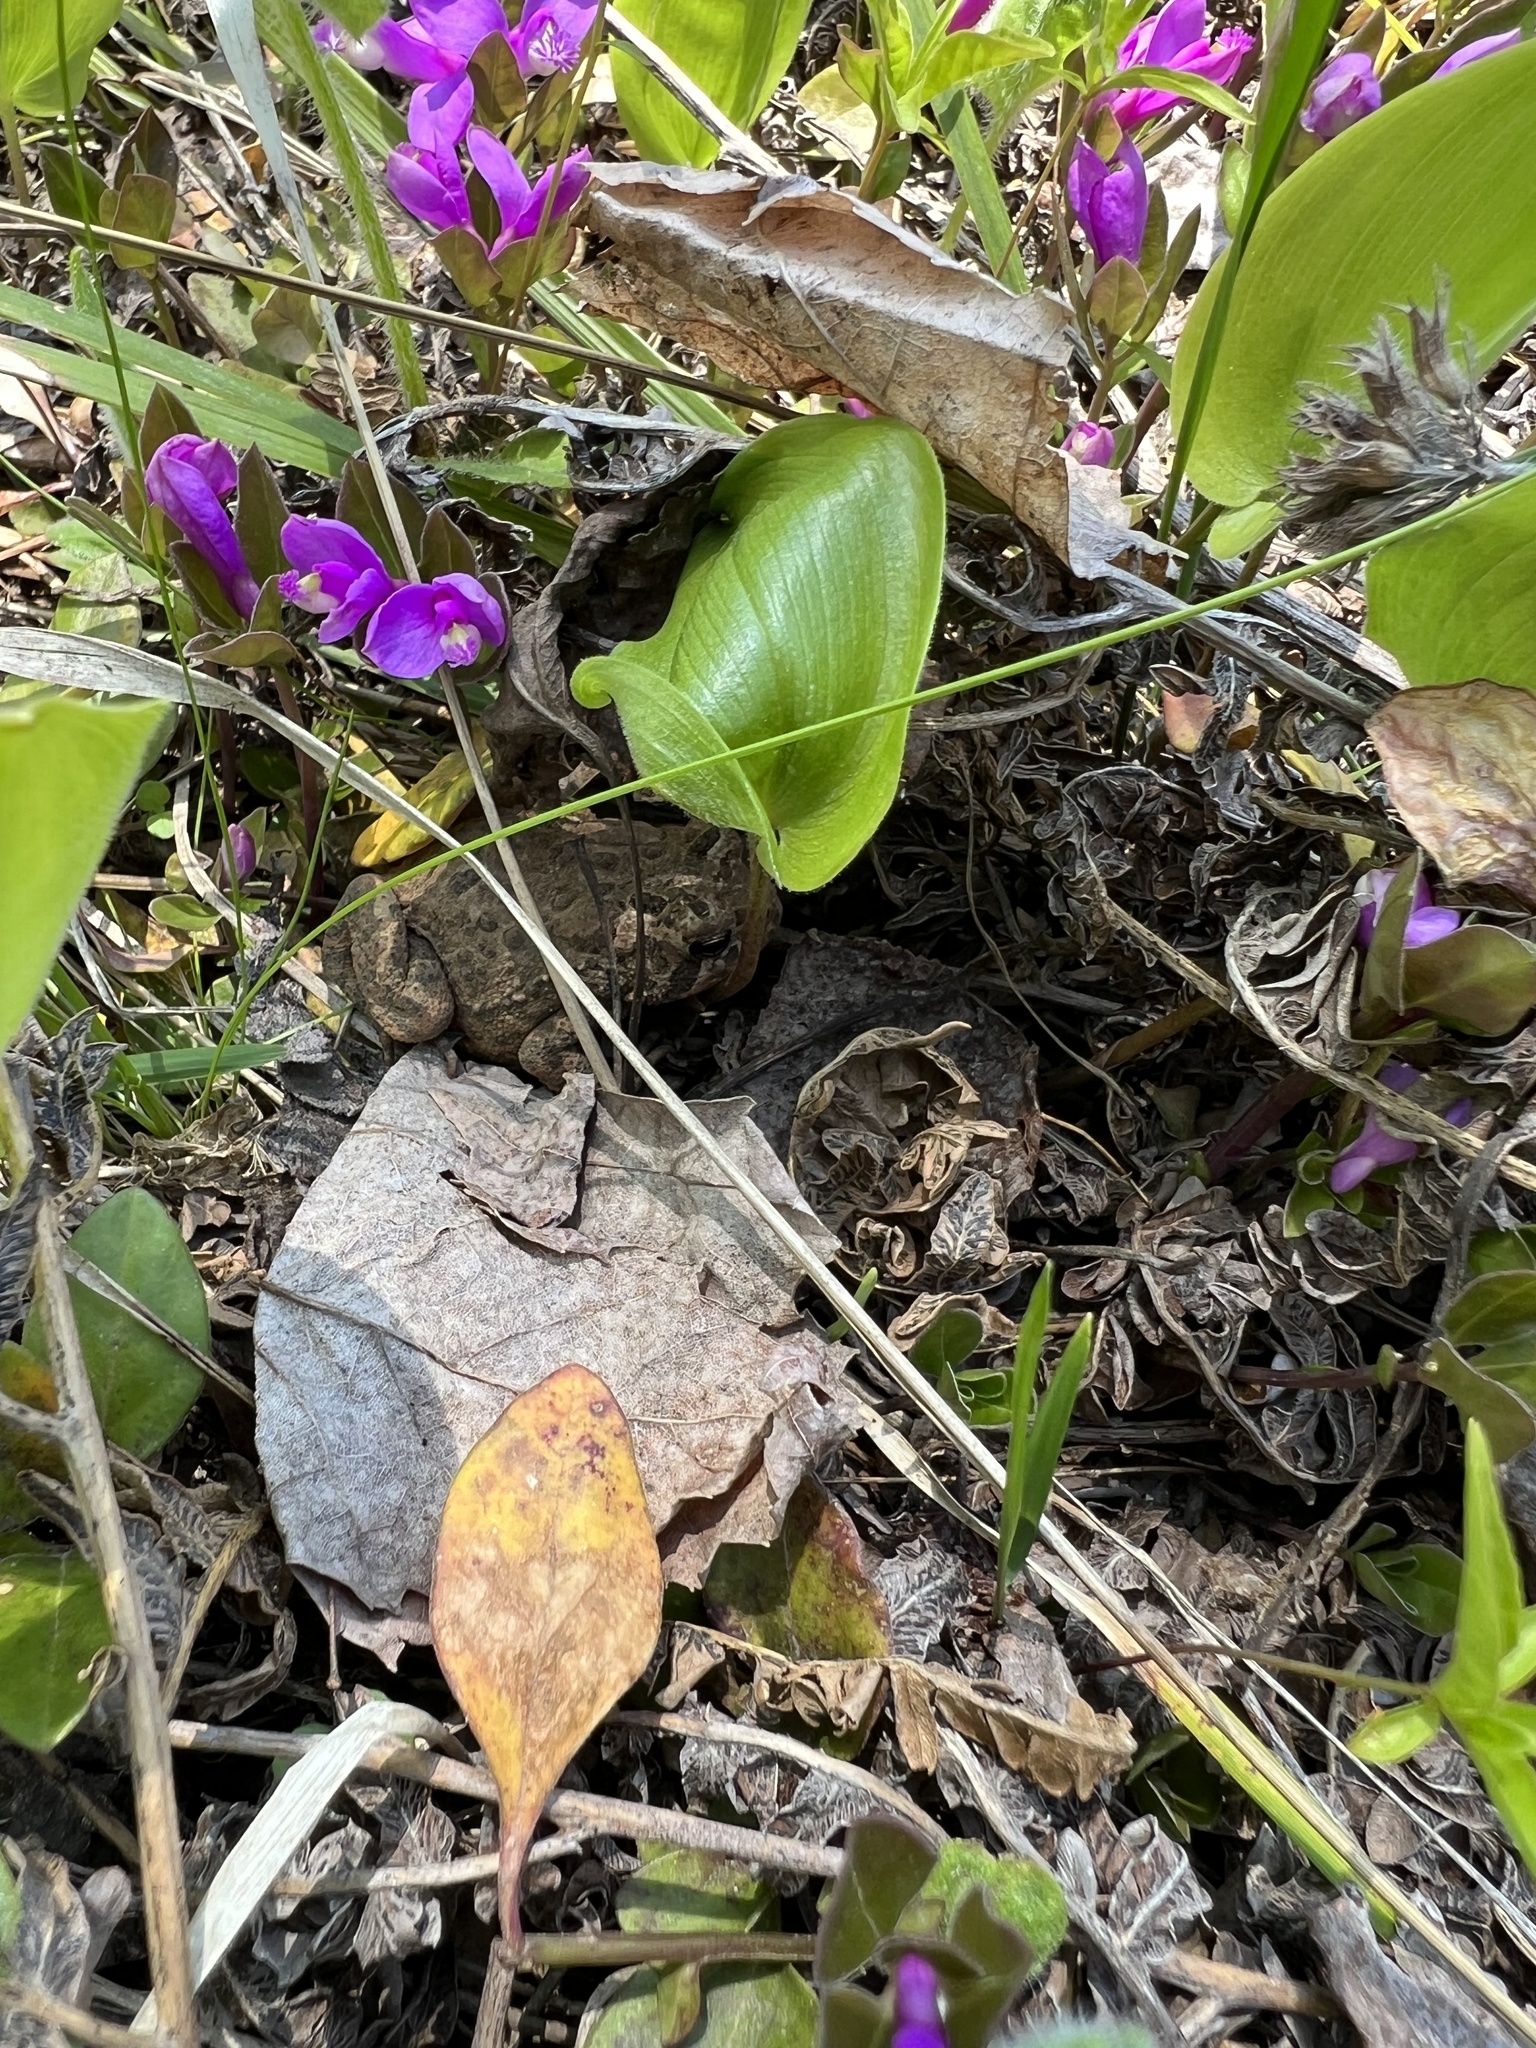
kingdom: Animalia
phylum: Chordata
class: Amphibia
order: Anura
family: Bufonidae
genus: Anaxyrus
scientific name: Anaxyrus americanus
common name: American toad
